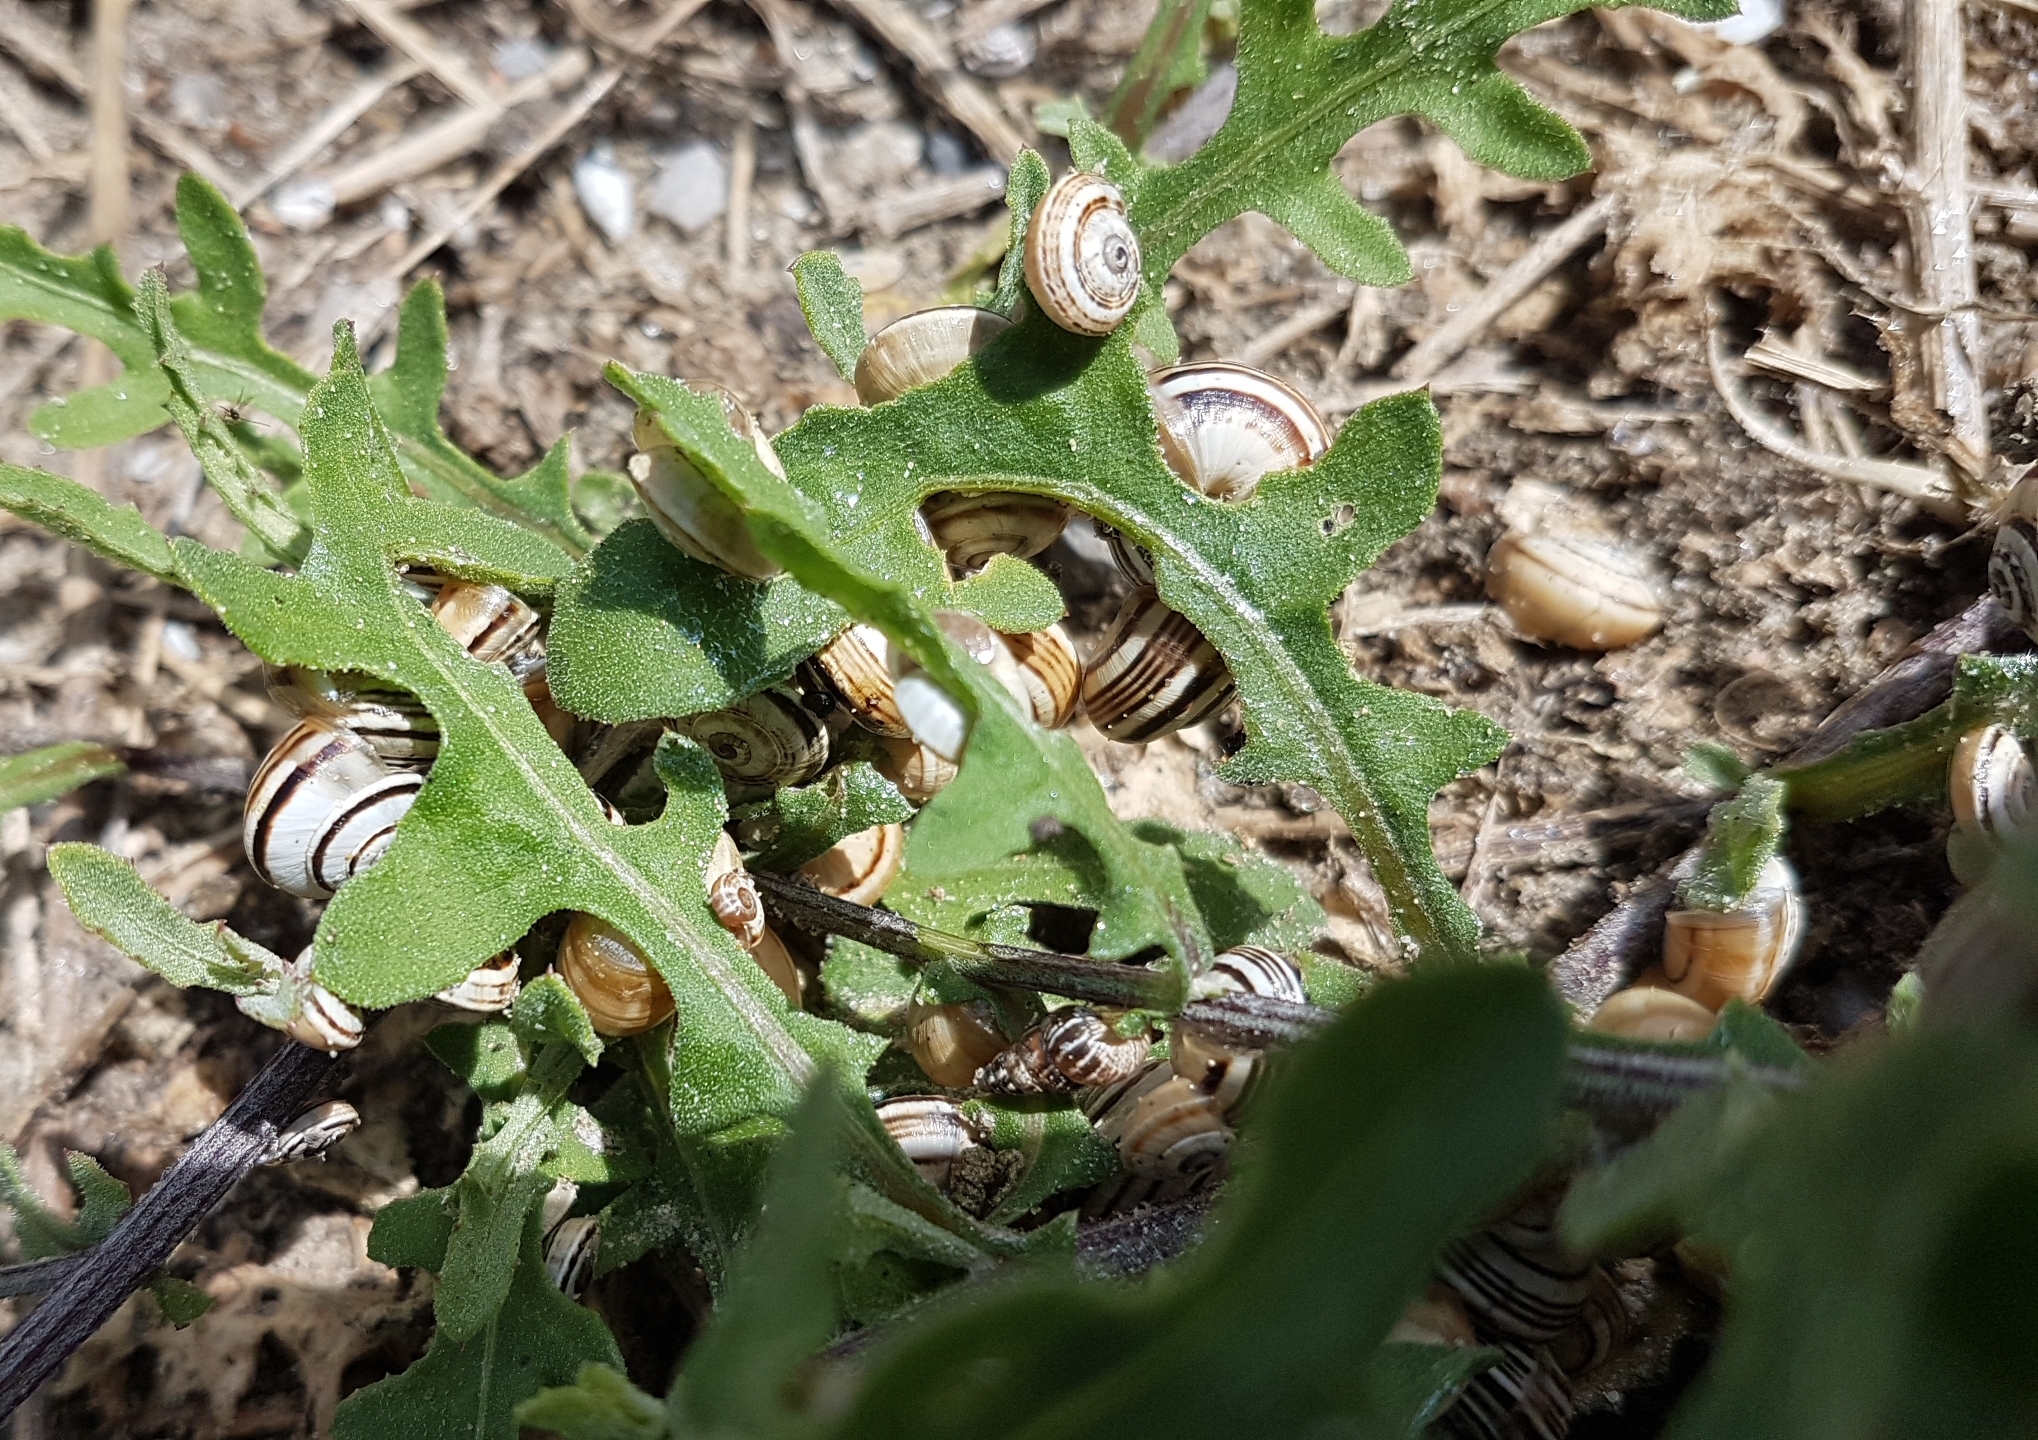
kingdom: Animalia
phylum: Mollusca
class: Gastropoda
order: Stylommatophora
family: Helicidae
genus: Theba
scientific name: Theba pisana
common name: White snail
